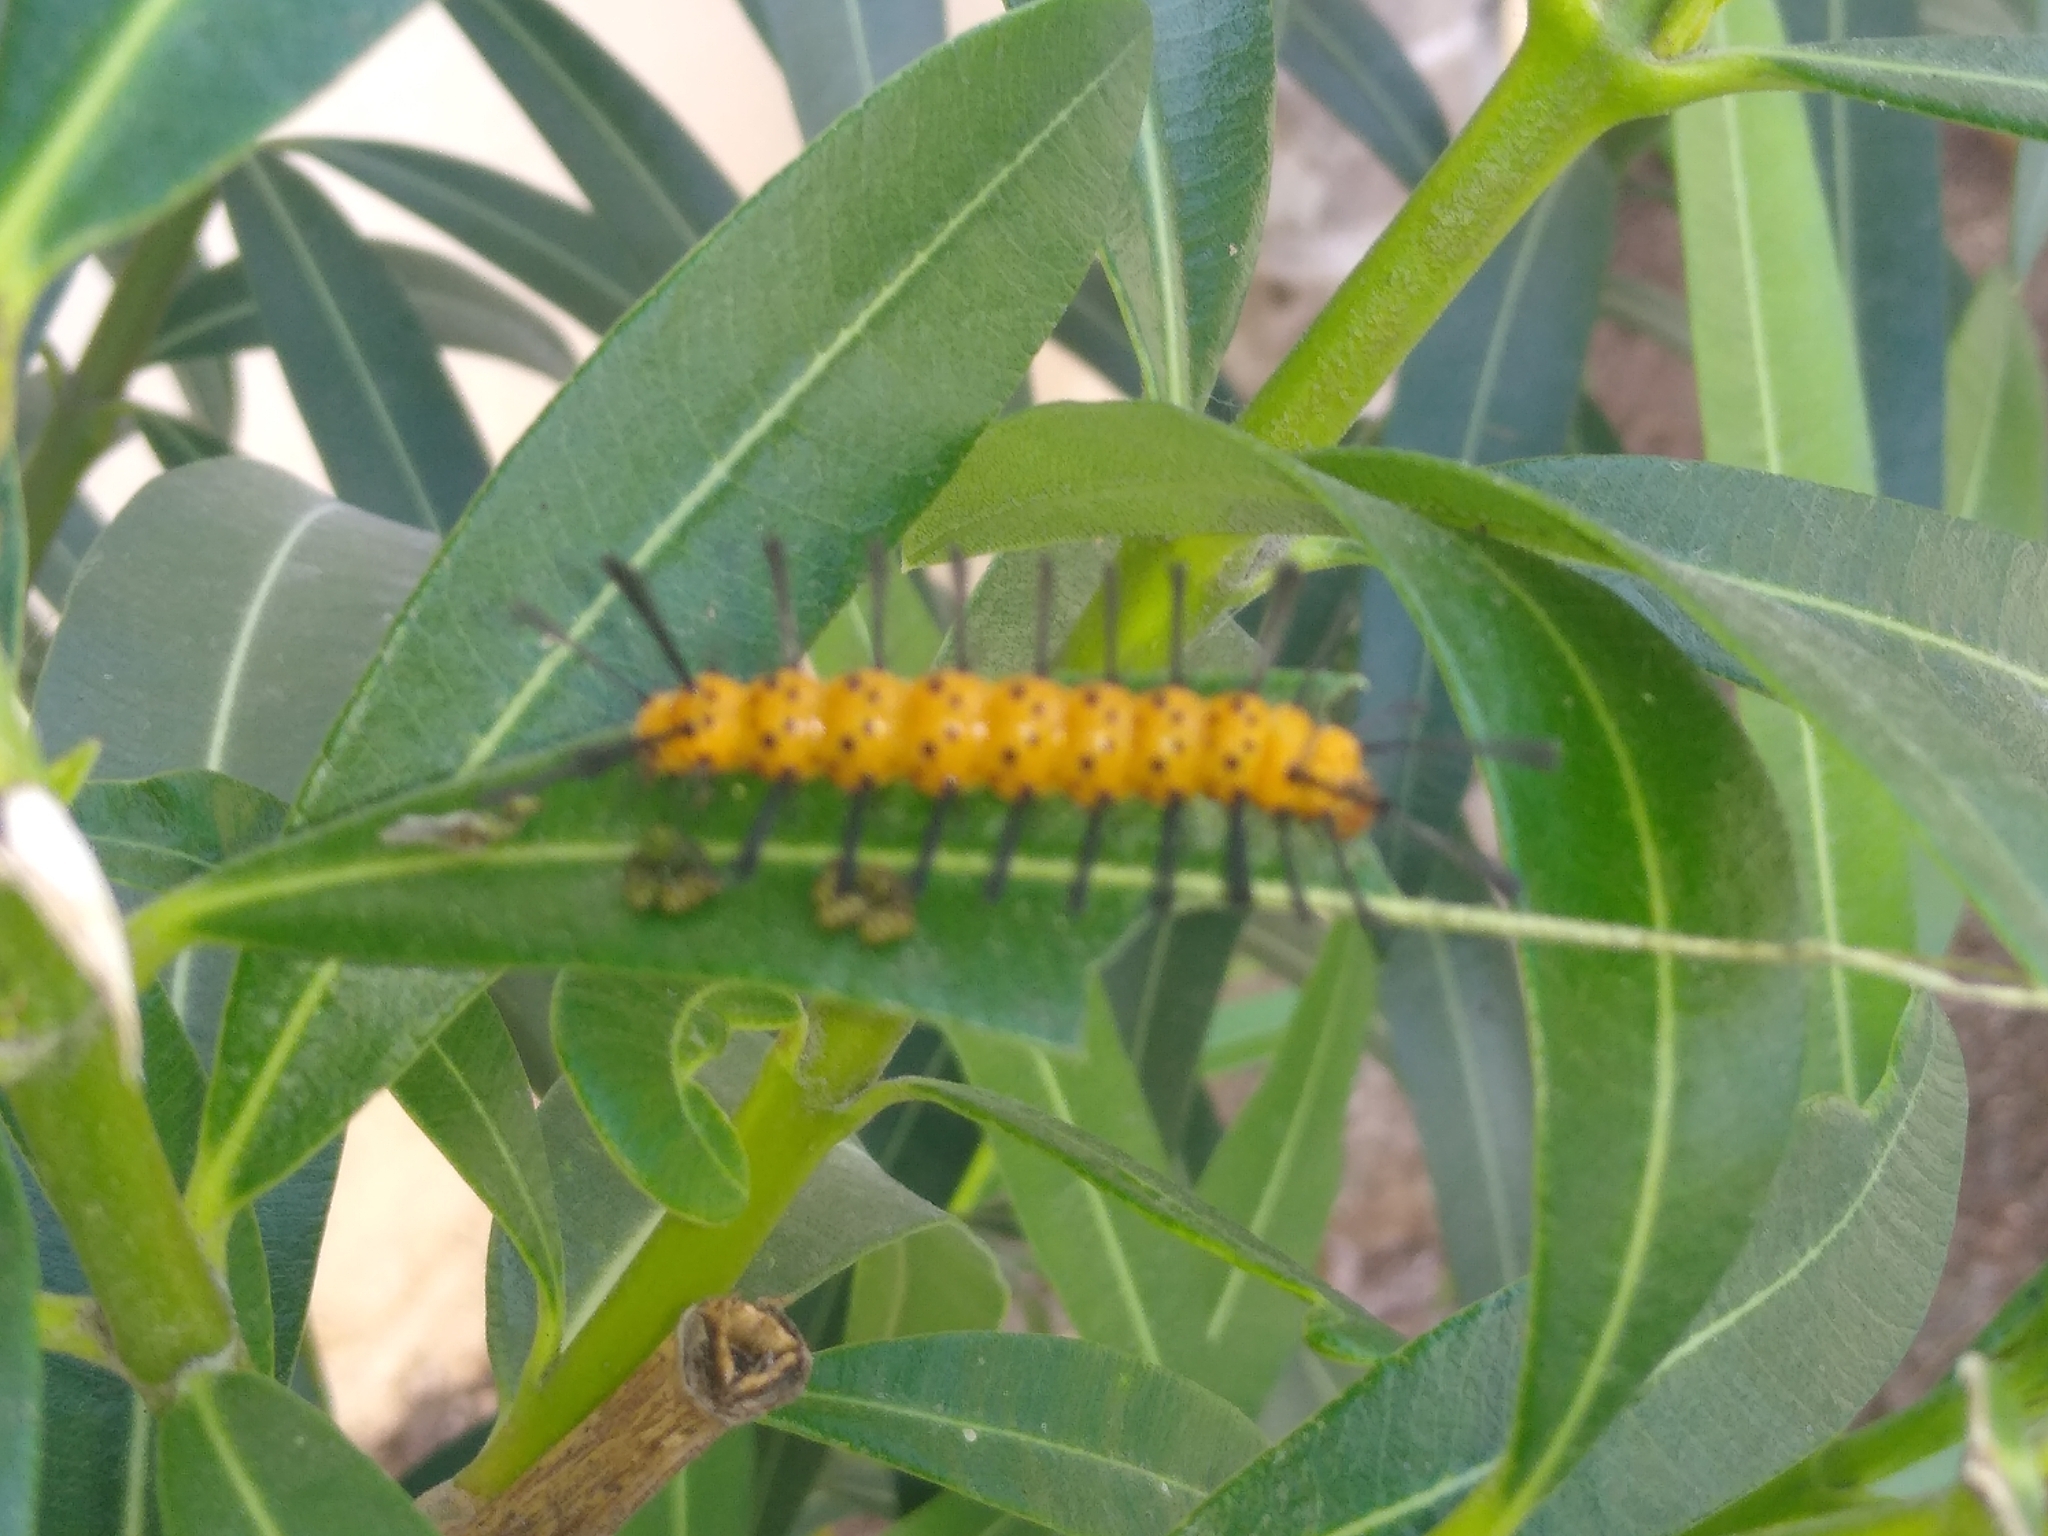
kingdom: Animalia
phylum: Arthropoda
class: Insecta
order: Lepidoptera
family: Erebidae
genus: Syntomeida
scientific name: Syntomeida epilais
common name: Polka-dot wasp moth
